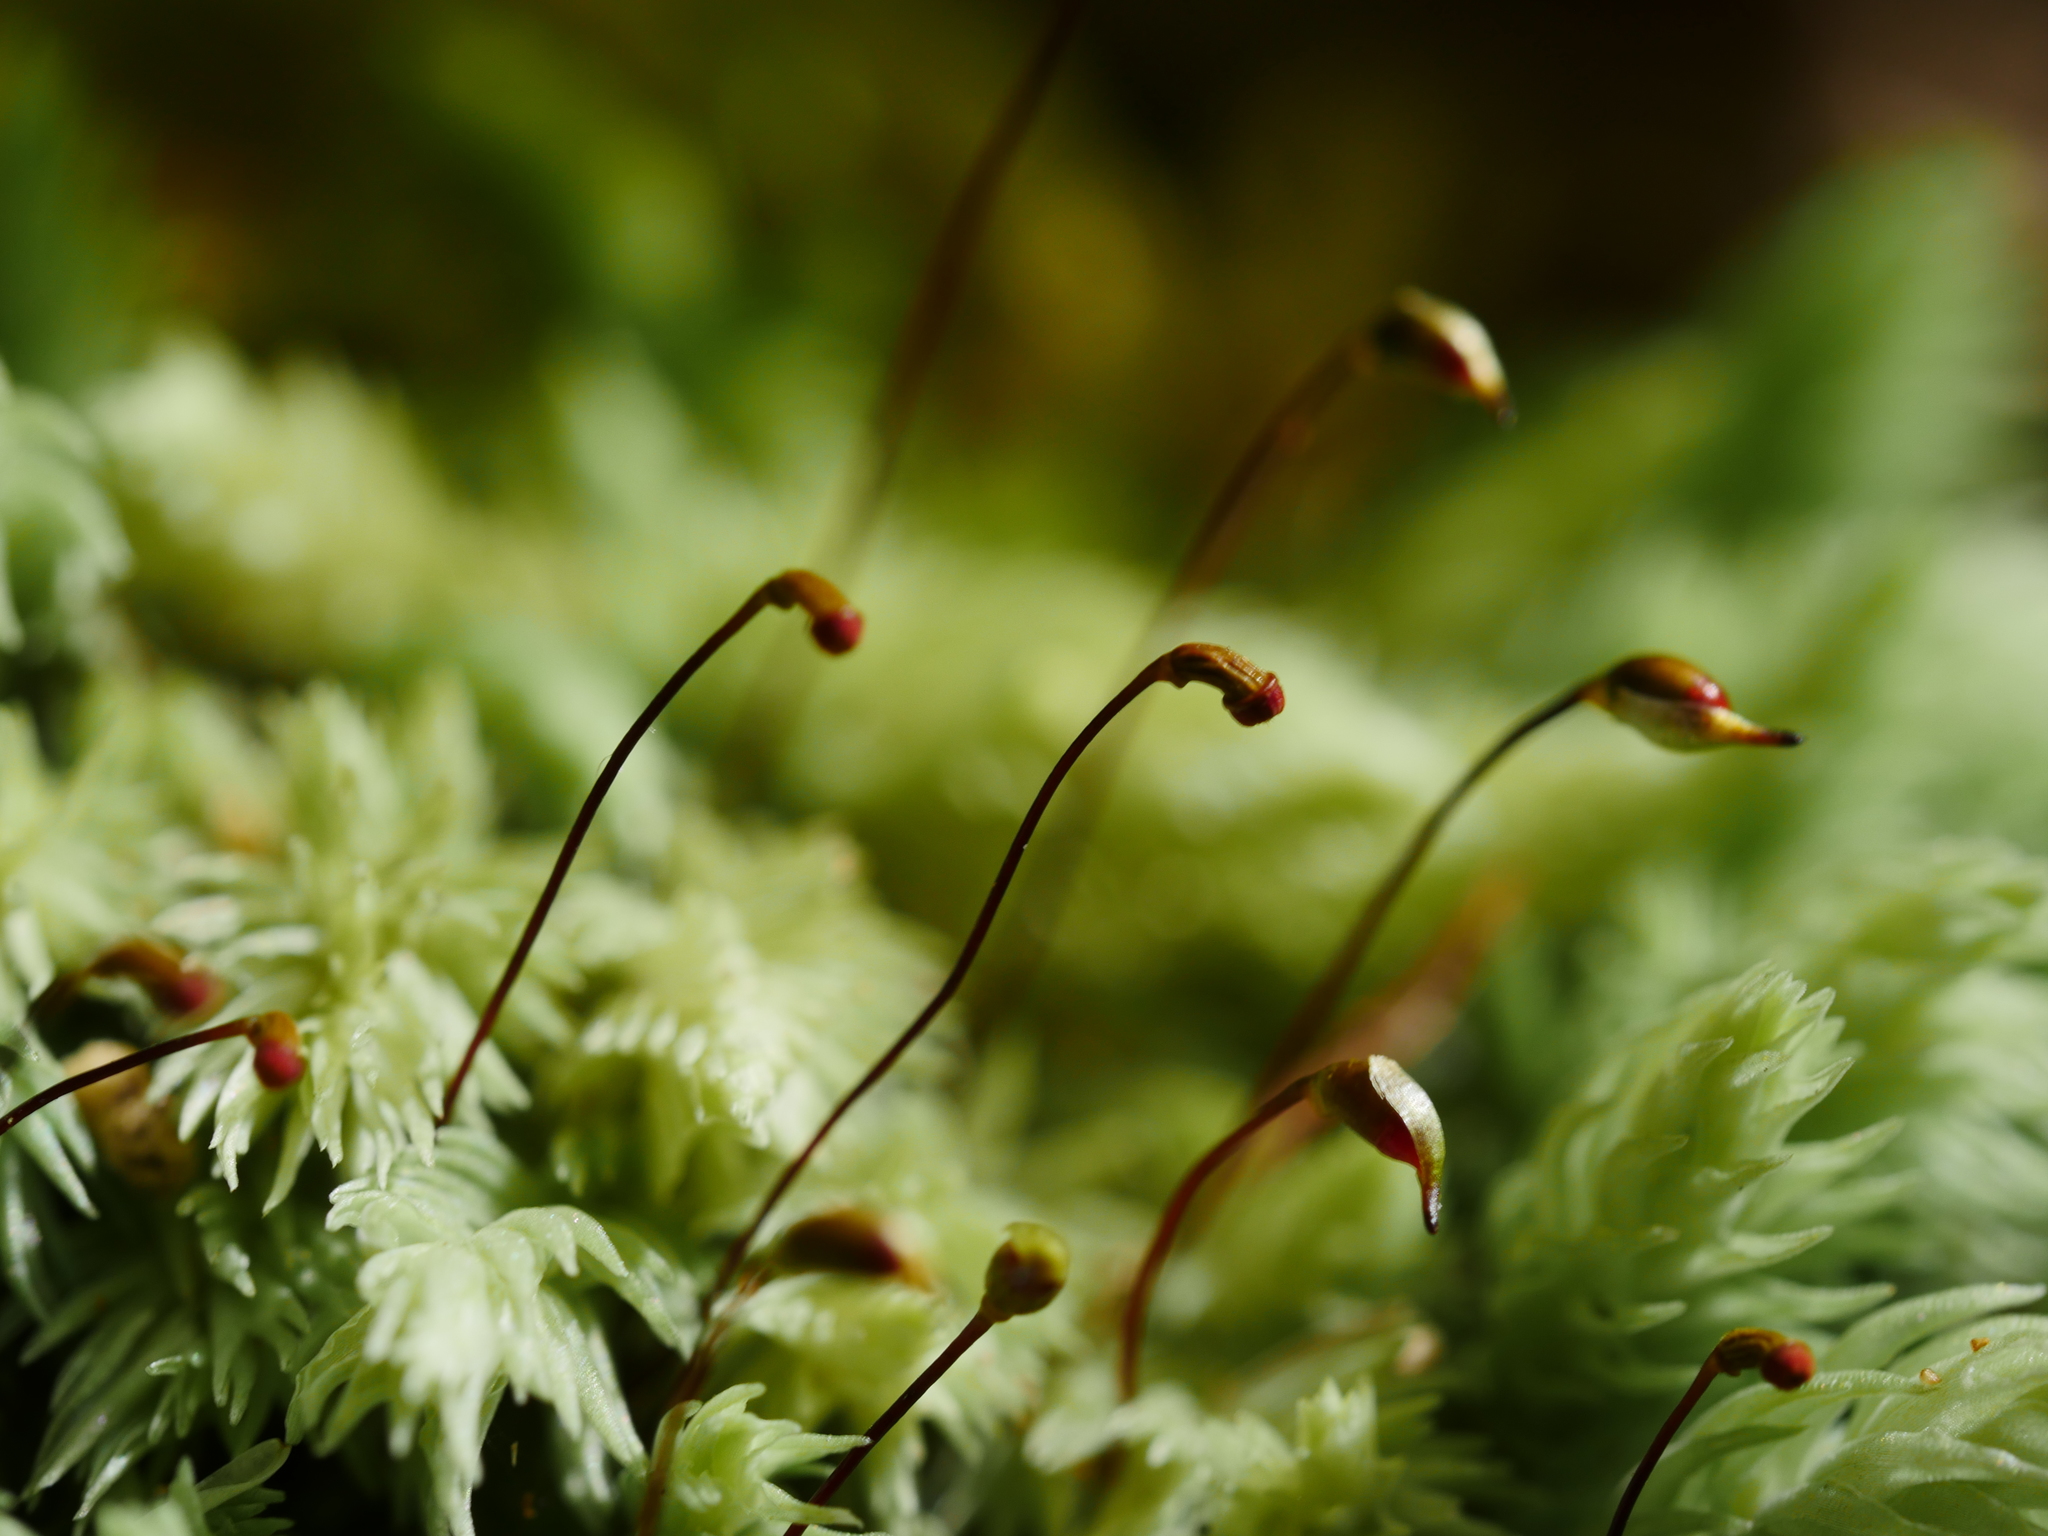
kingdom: Plantae
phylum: Bryophyta
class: Bryopsida
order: Dicranales
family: Leucobryaceae
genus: Leucobryum
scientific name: Leucobryum javense
